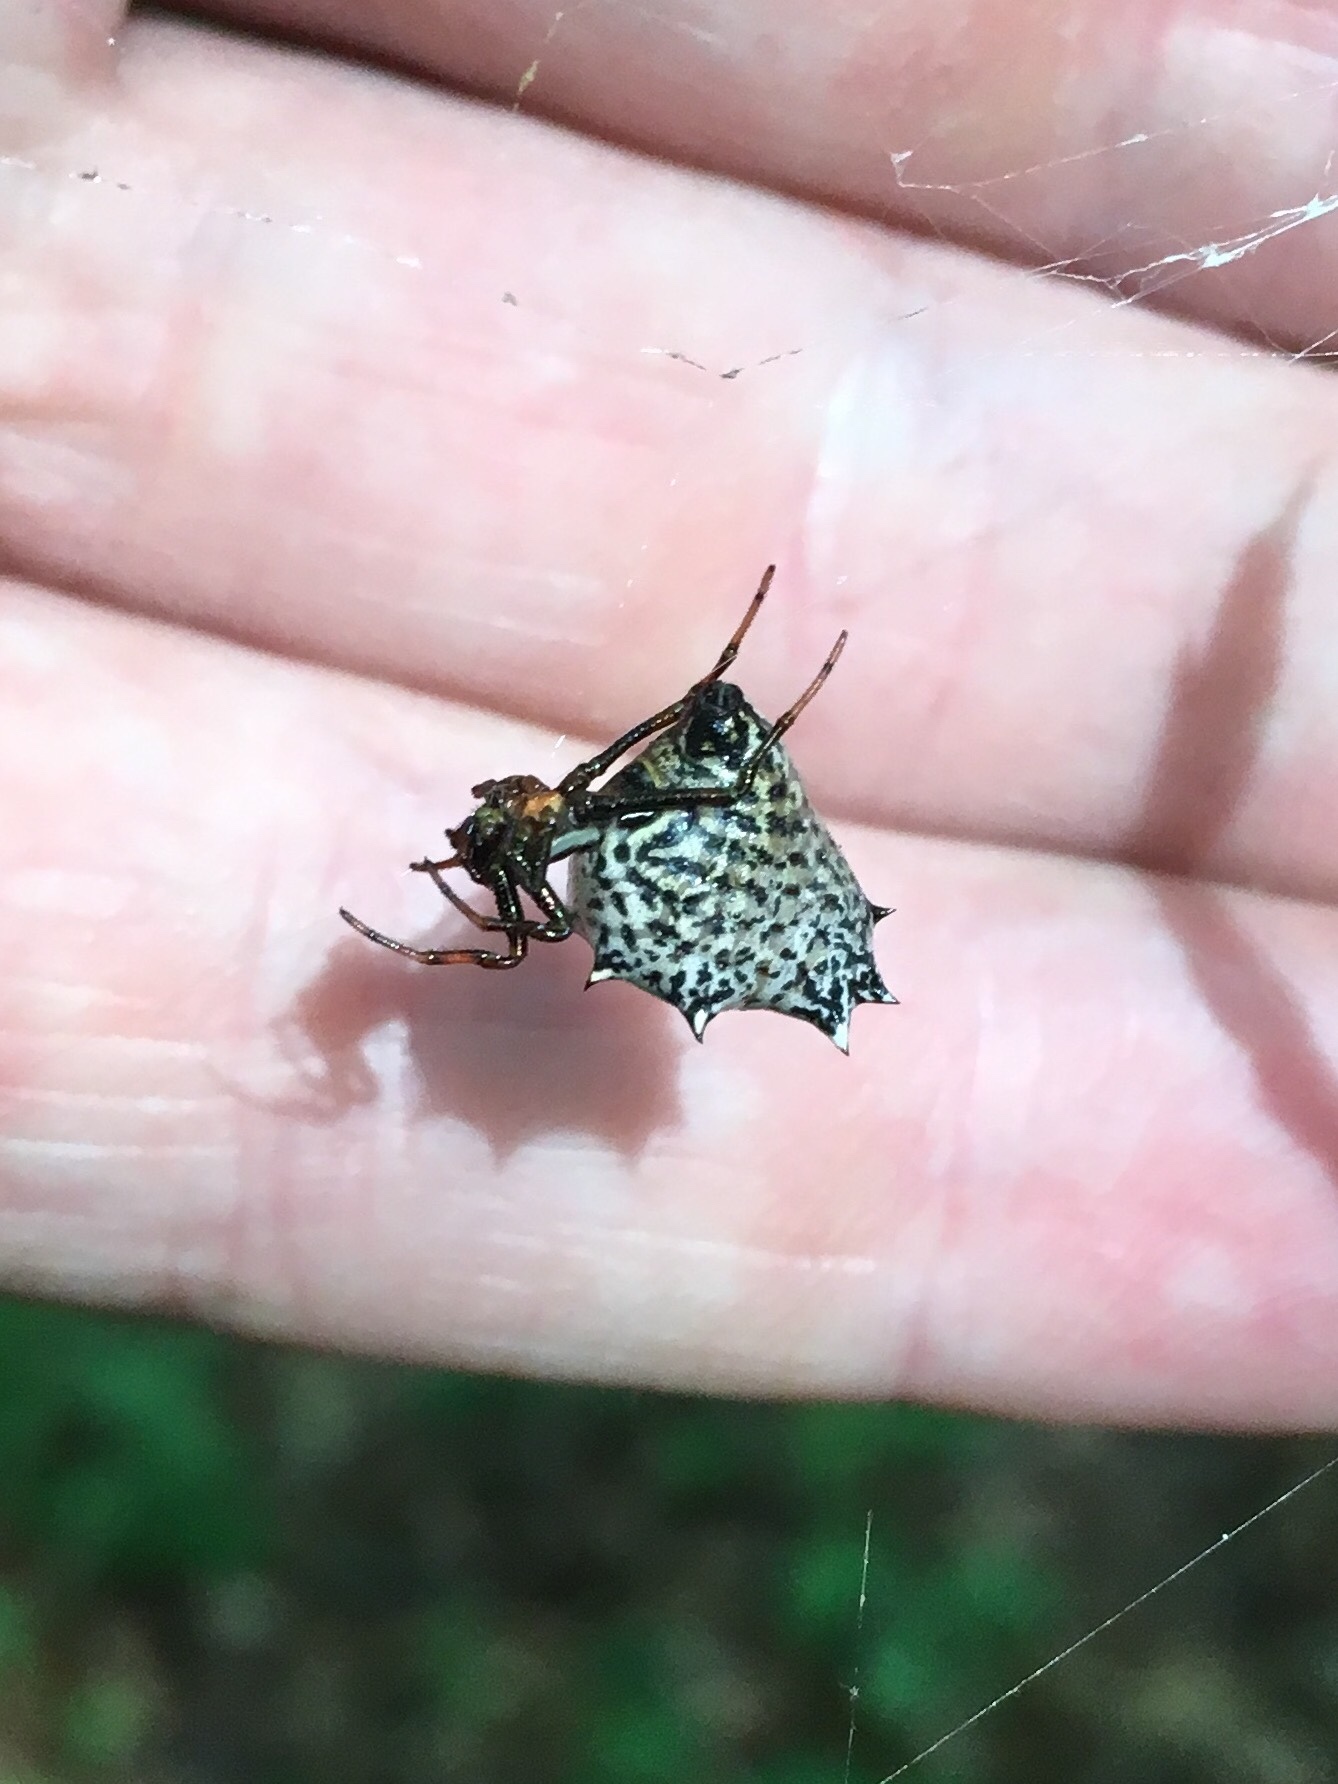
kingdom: Animalia
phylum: Arthropoda
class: Arachnida
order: Araneae
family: Araneidae
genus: Micrathena
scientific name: Micrathena gracilis
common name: Orb weavers
